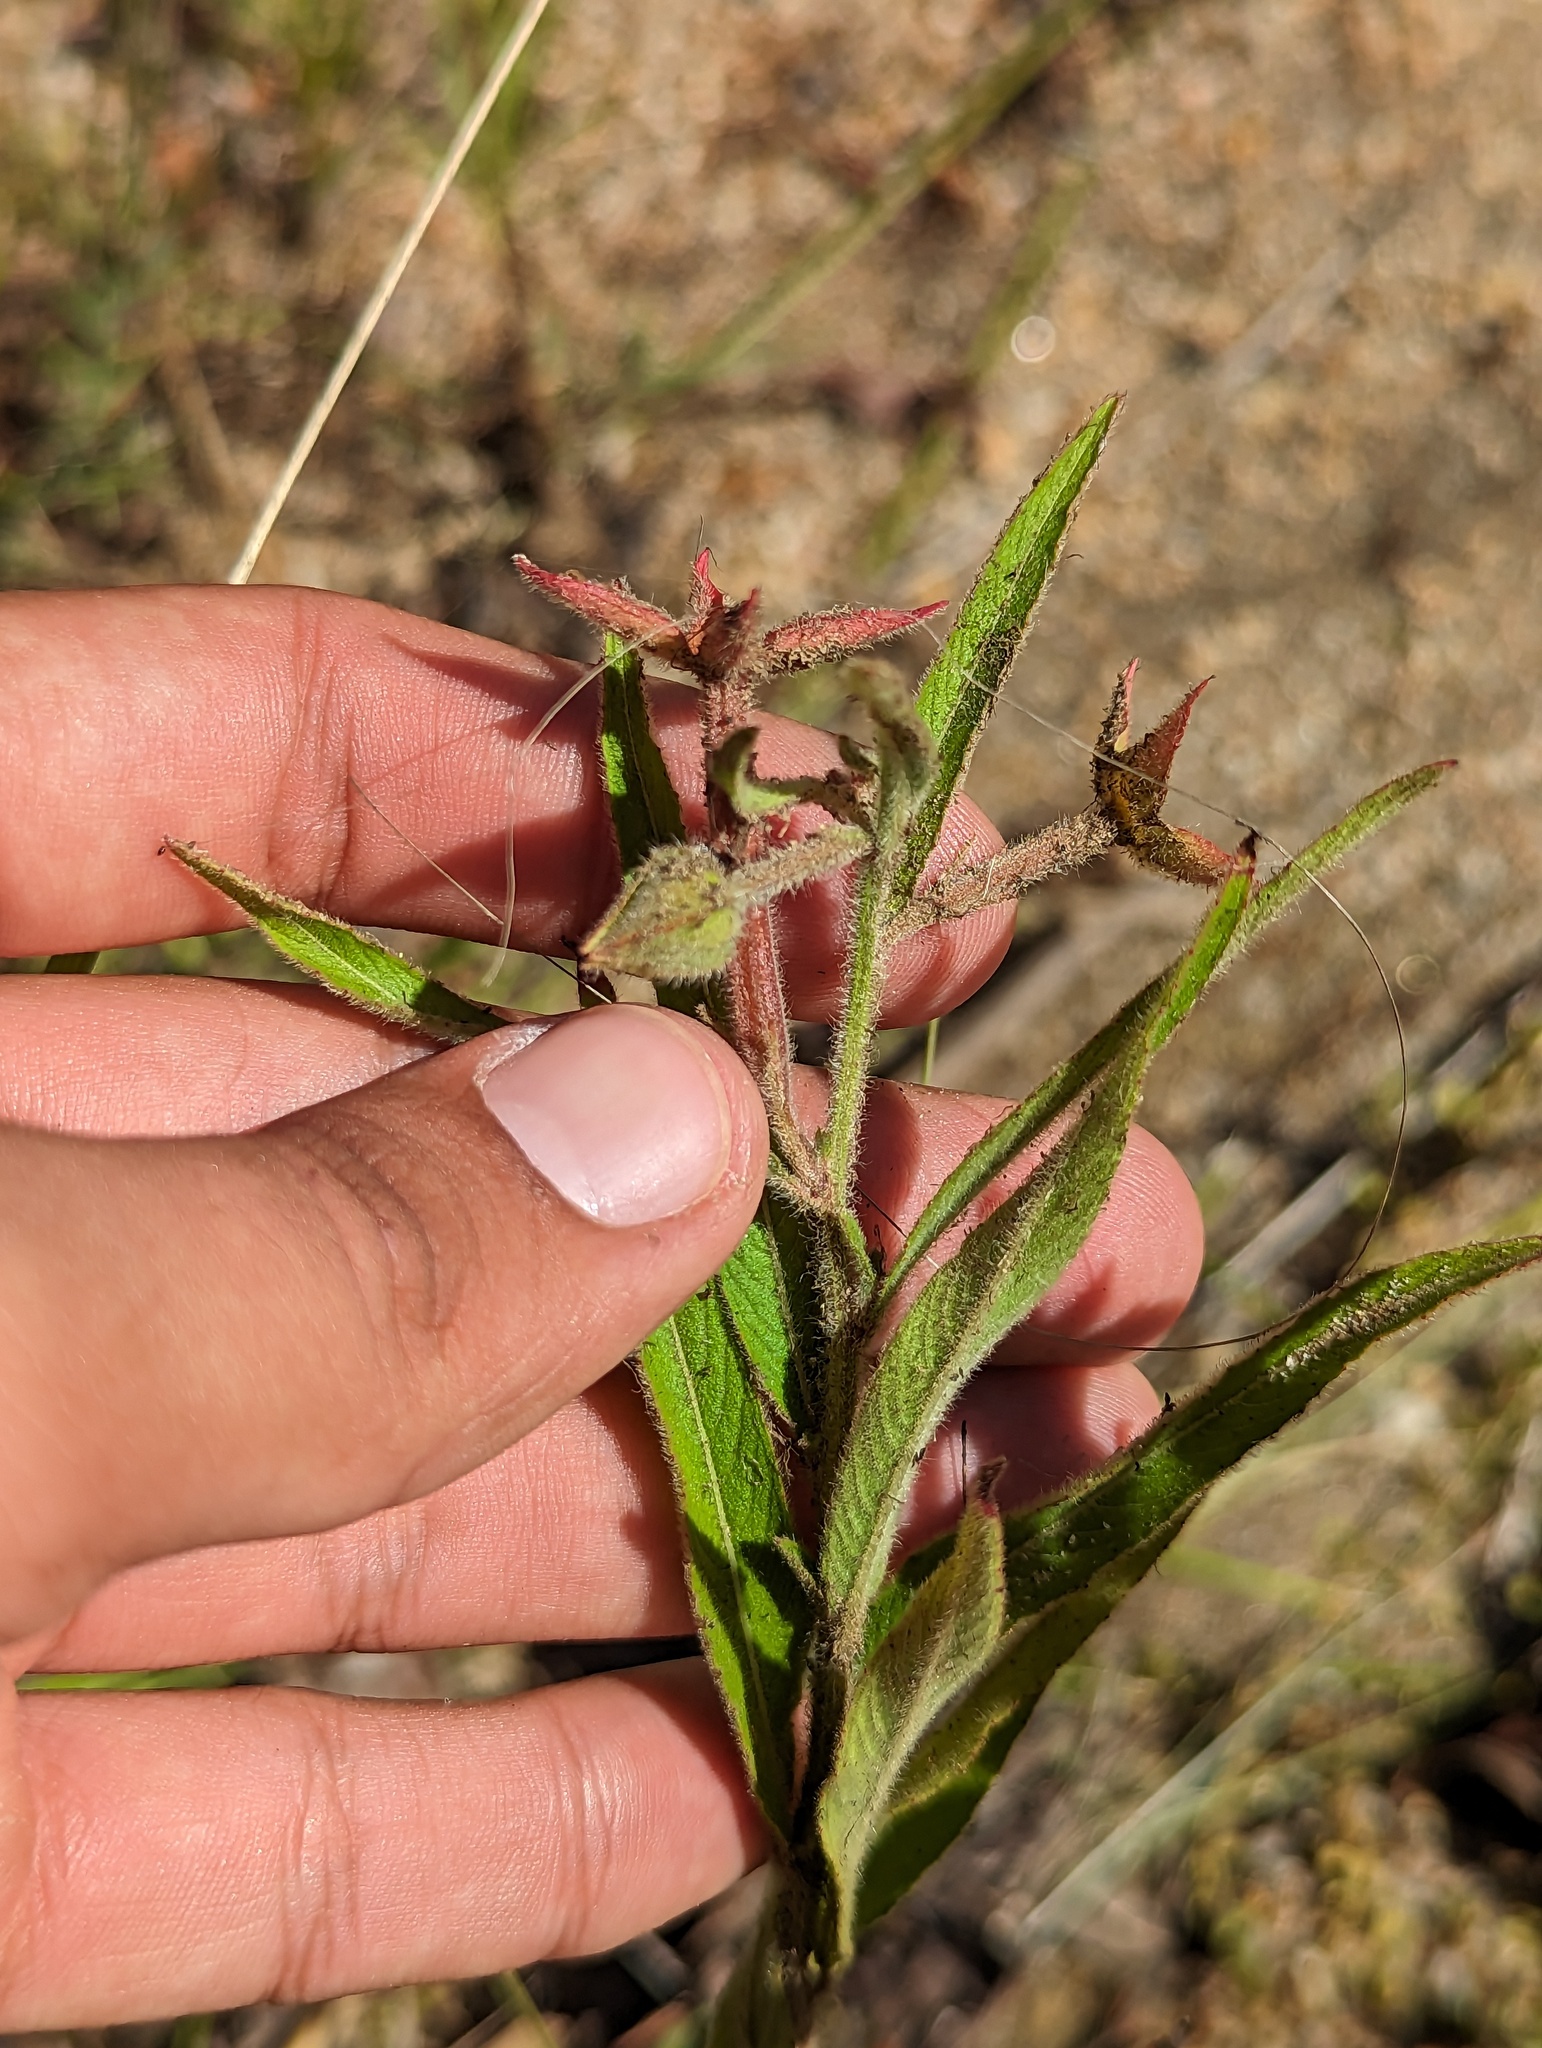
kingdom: Plantae
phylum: Tracheophyta
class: Magnoliopsida
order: Myrtales
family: Onagraceae
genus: Ludwigia
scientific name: Ludwigia octovalvis
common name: Water-primrose
